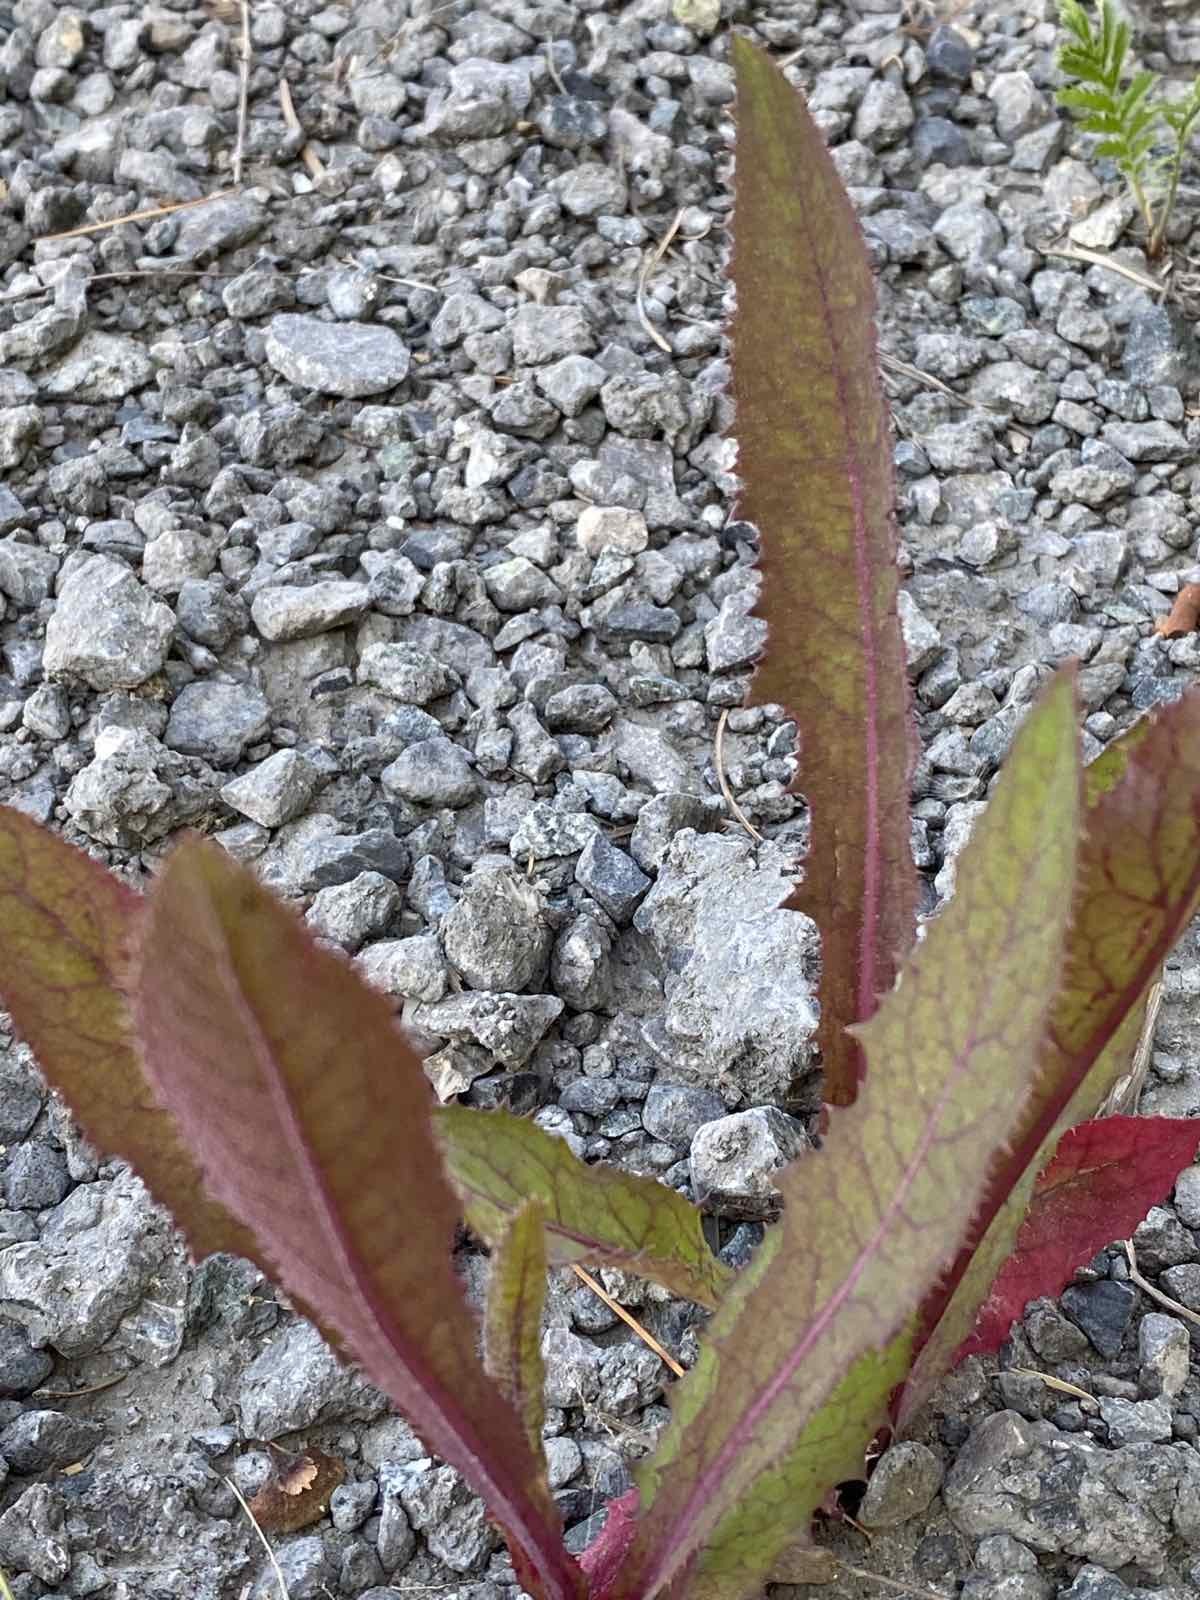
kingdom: Plantae
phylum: Tracheophyta
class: Magnoliopsida
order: Asterales
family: Asteraceae
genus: Sonchus
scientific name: Sonchus arvensis
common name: Perennial sow-thistle
